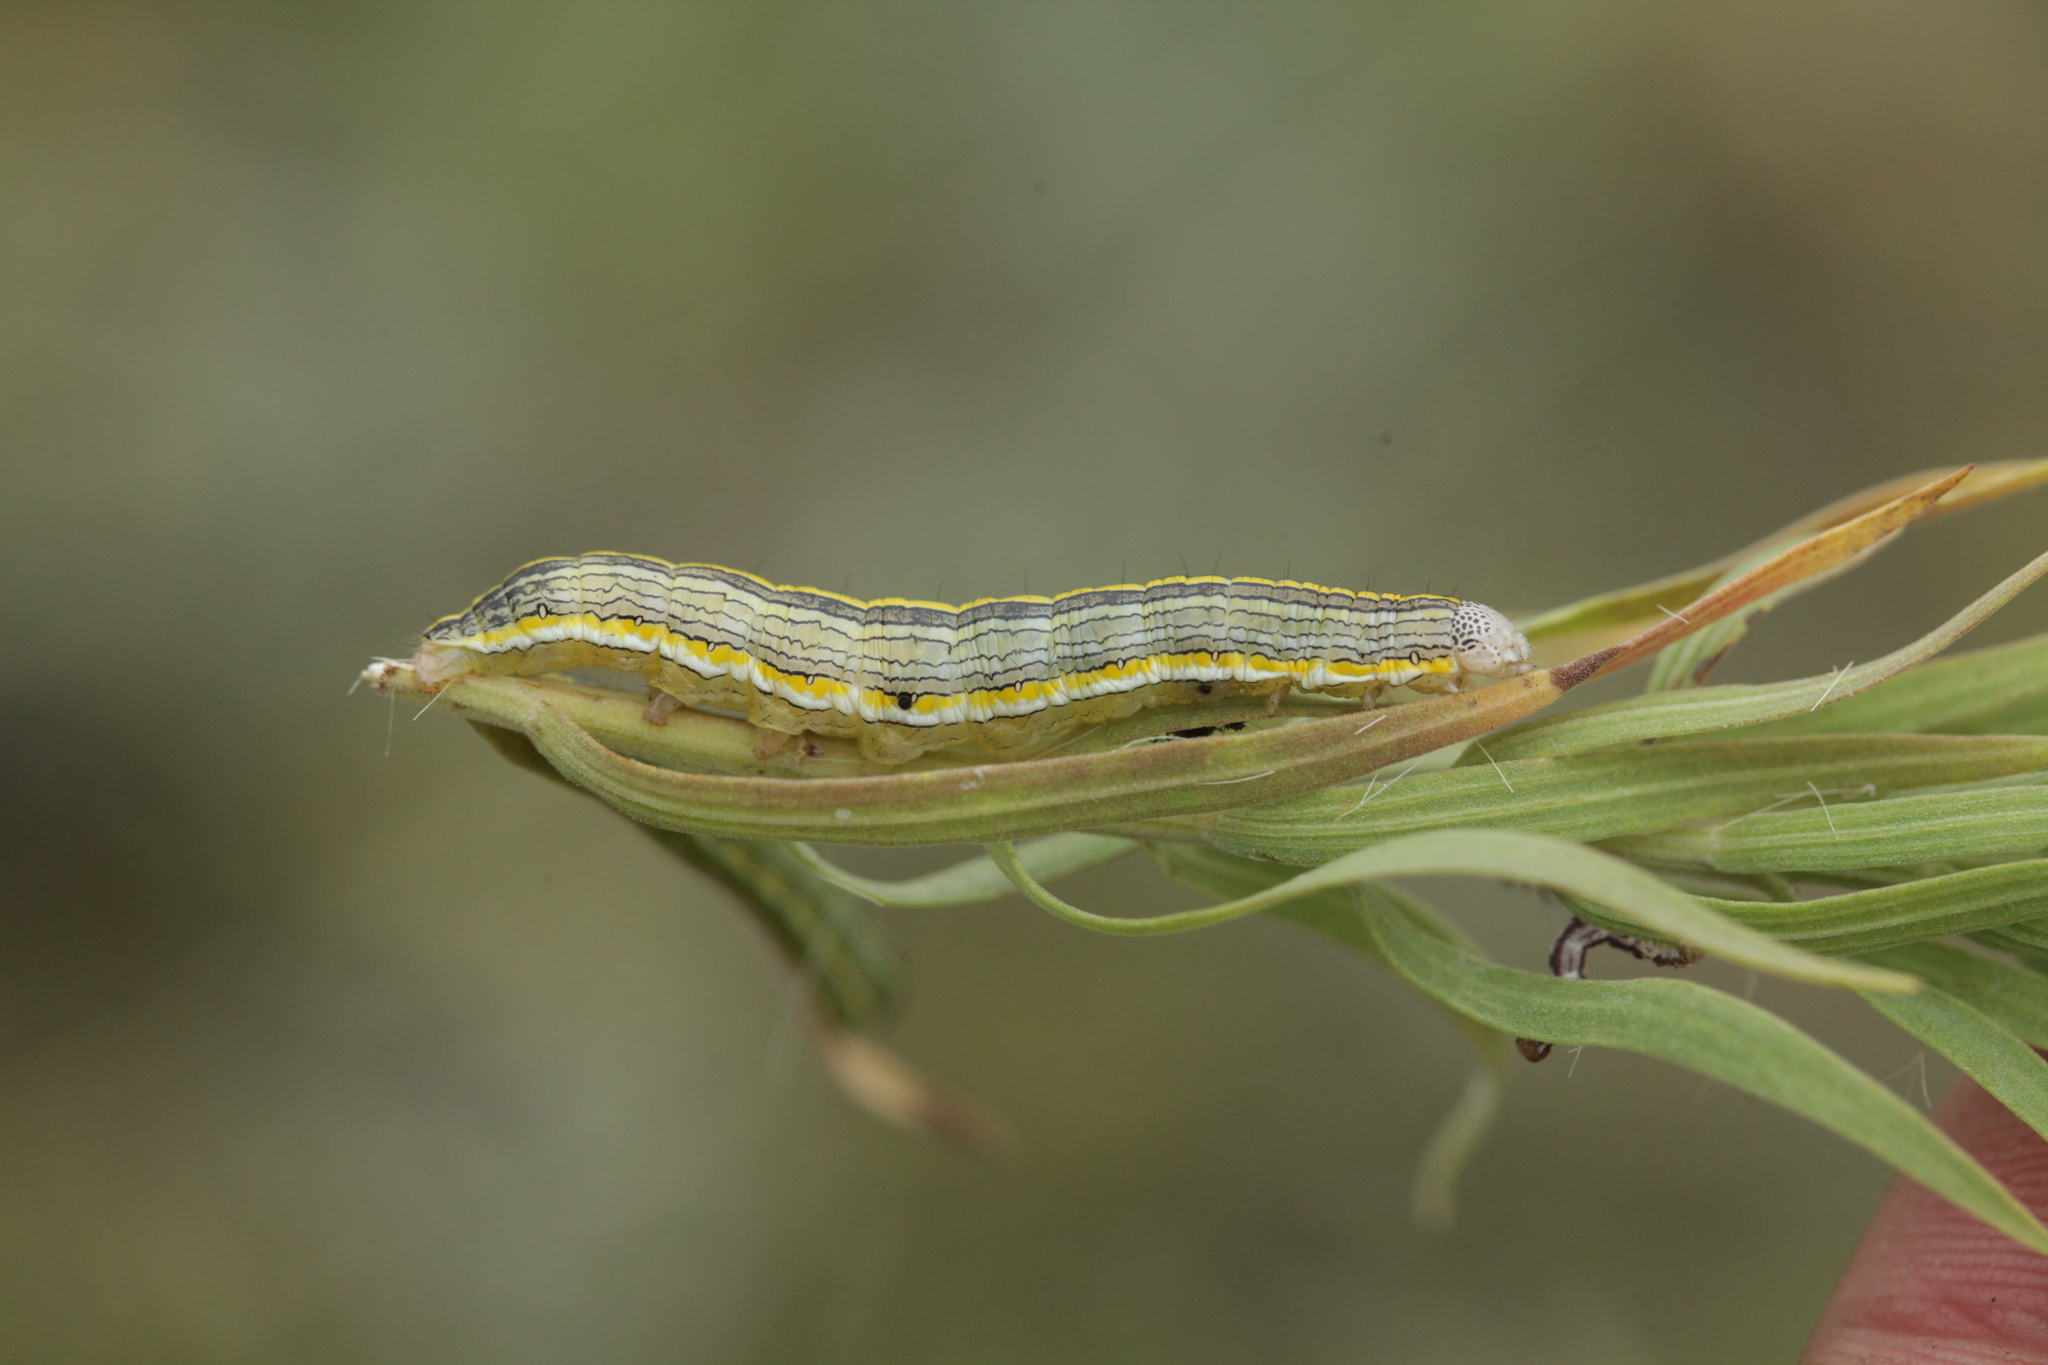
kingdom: Animalia
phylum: Arthropoda
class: Insecta
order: Lepidoptera
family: Noctuidae
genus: Cucullia
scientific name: Cucullia asteris
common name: Star-wort
